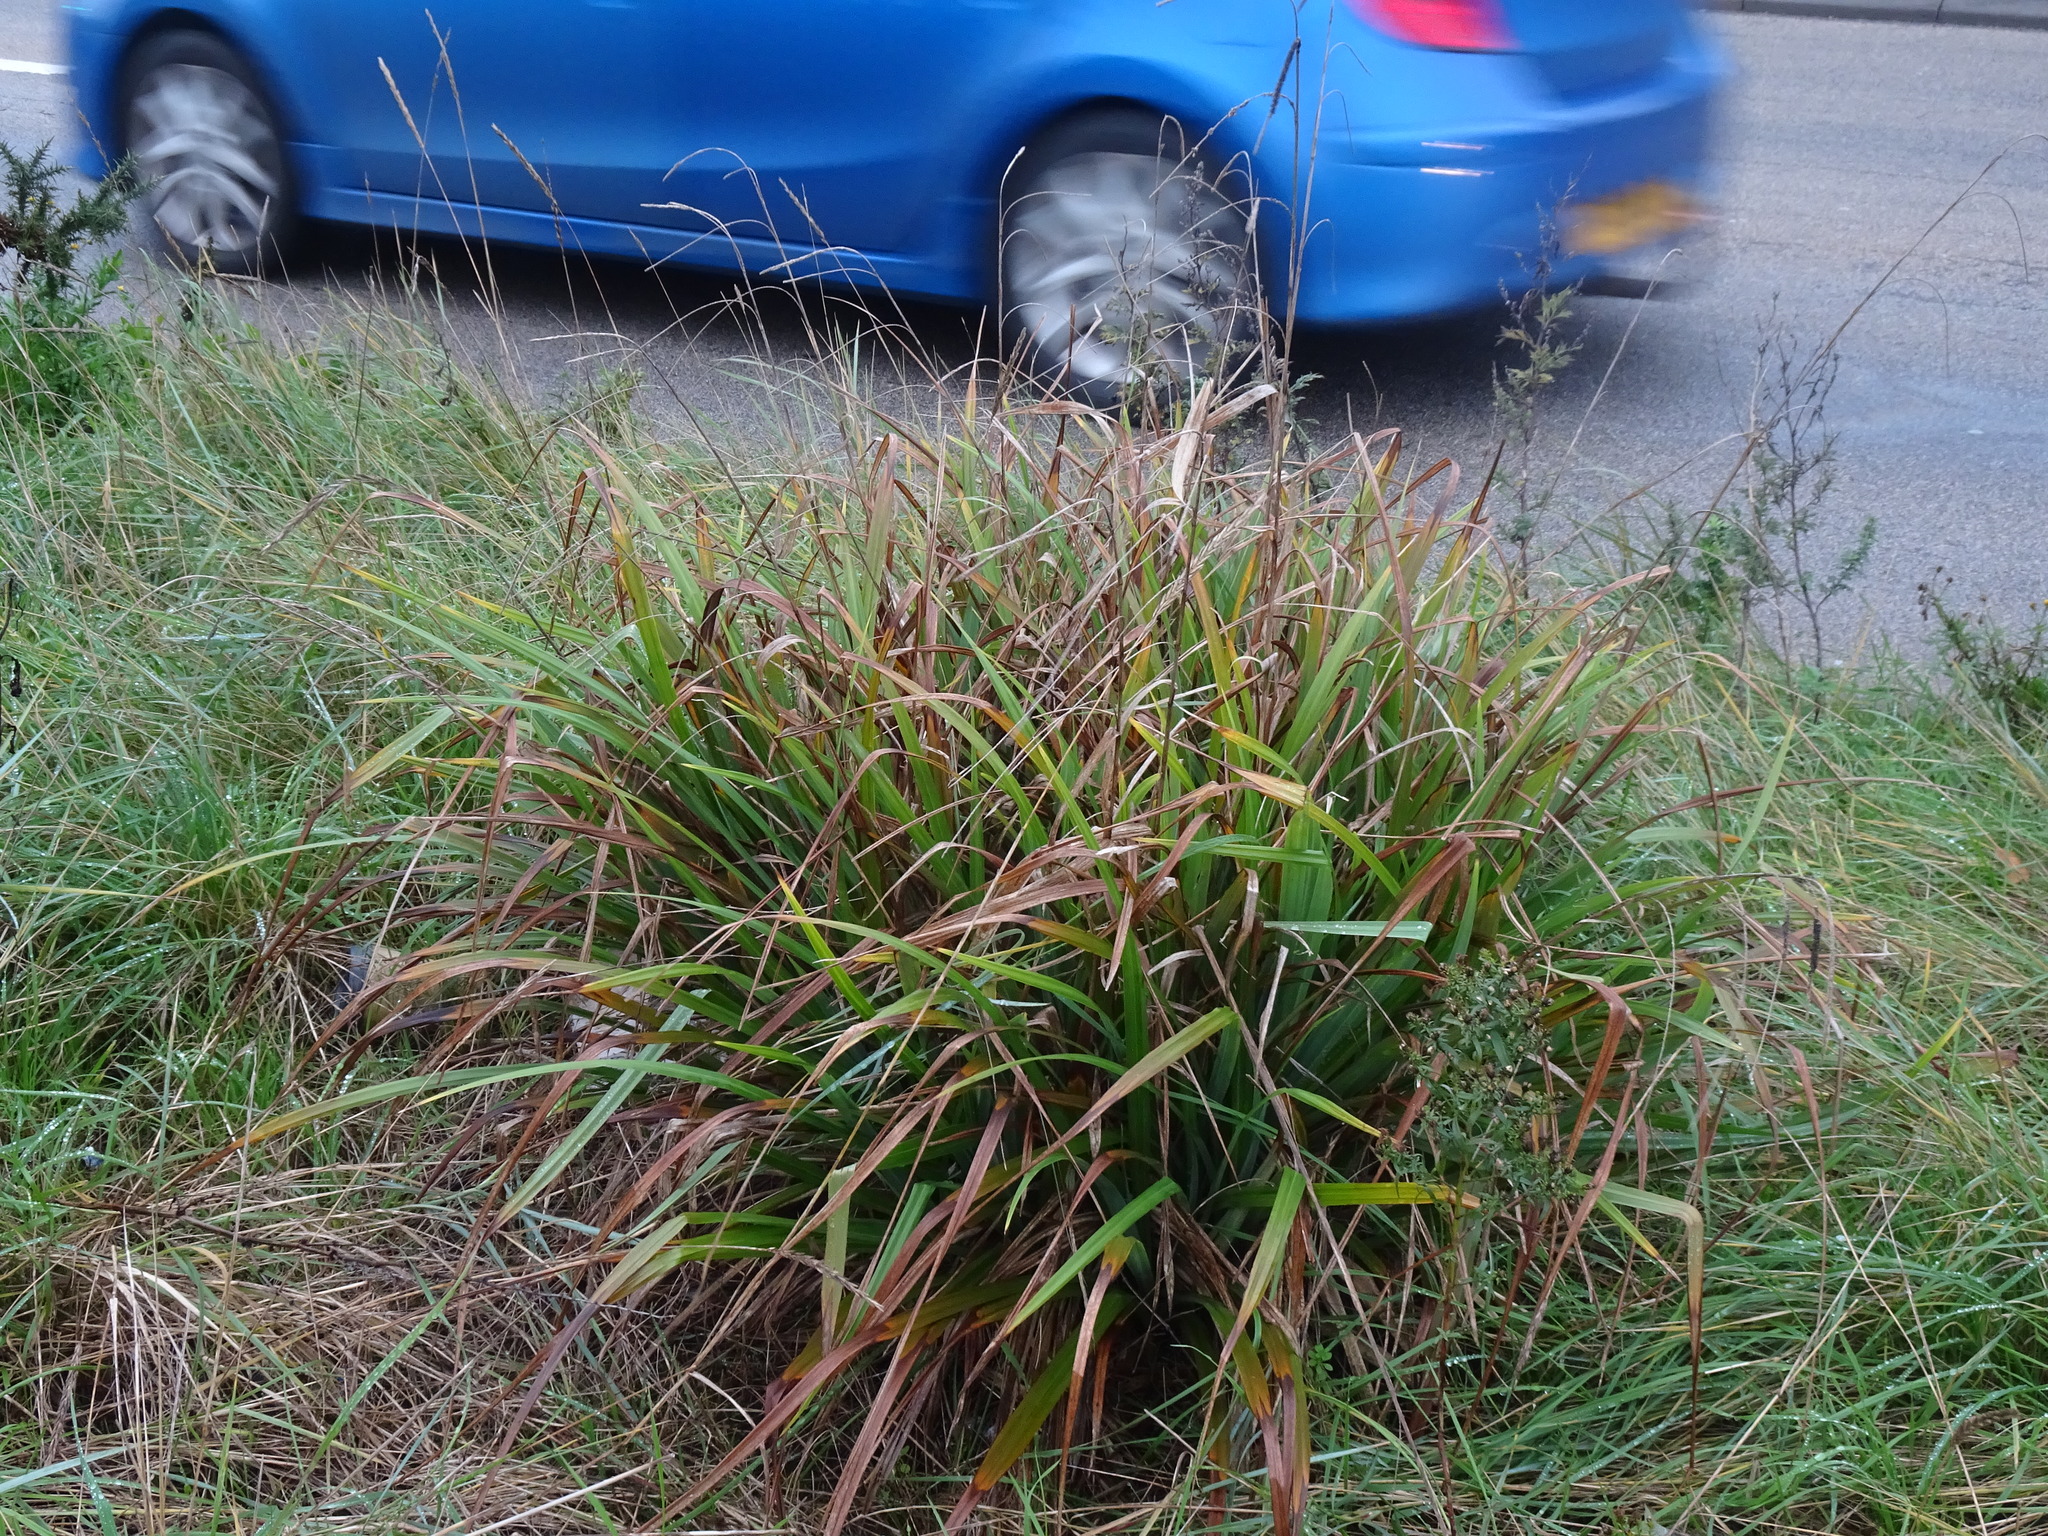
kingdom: Plantae
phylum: Tracheophyta
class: Liliopsida
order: Poales
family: Cyperaceae
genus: Carex
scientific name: Carex pendula
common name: Pendulous sedge
